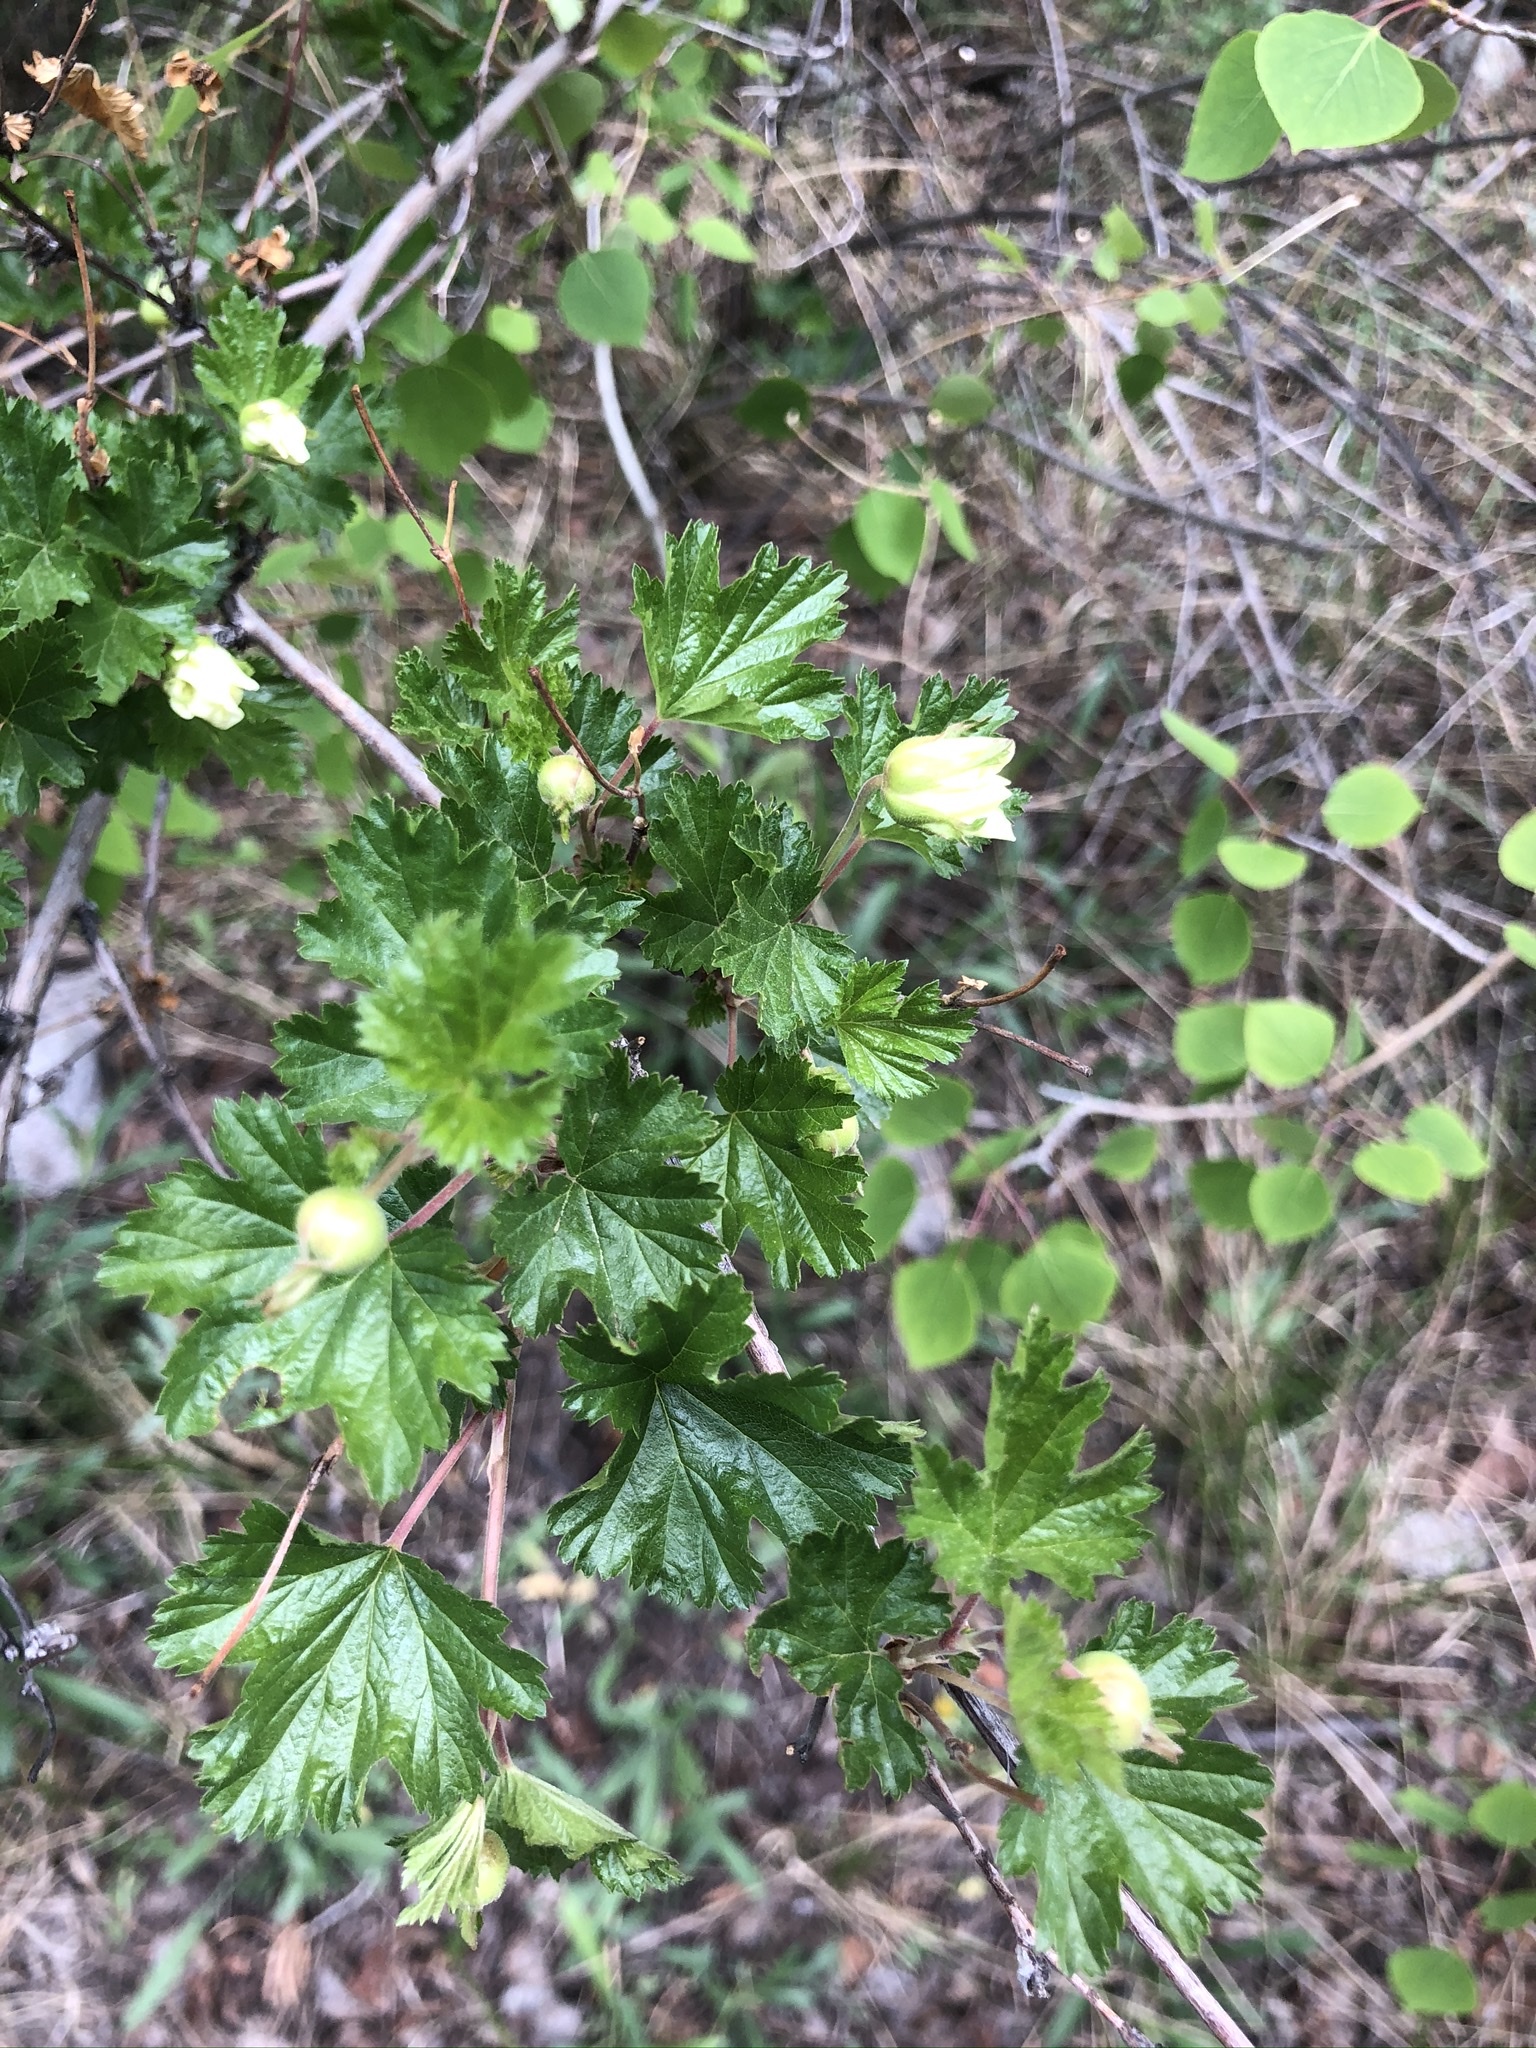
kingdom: Plantae
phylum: Tracheophyta
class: Magnoliopsida
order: Rosales
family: Rosaceae
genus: Rubus
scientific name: Rubus deliciosus
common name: Rocky mountain raspberry
